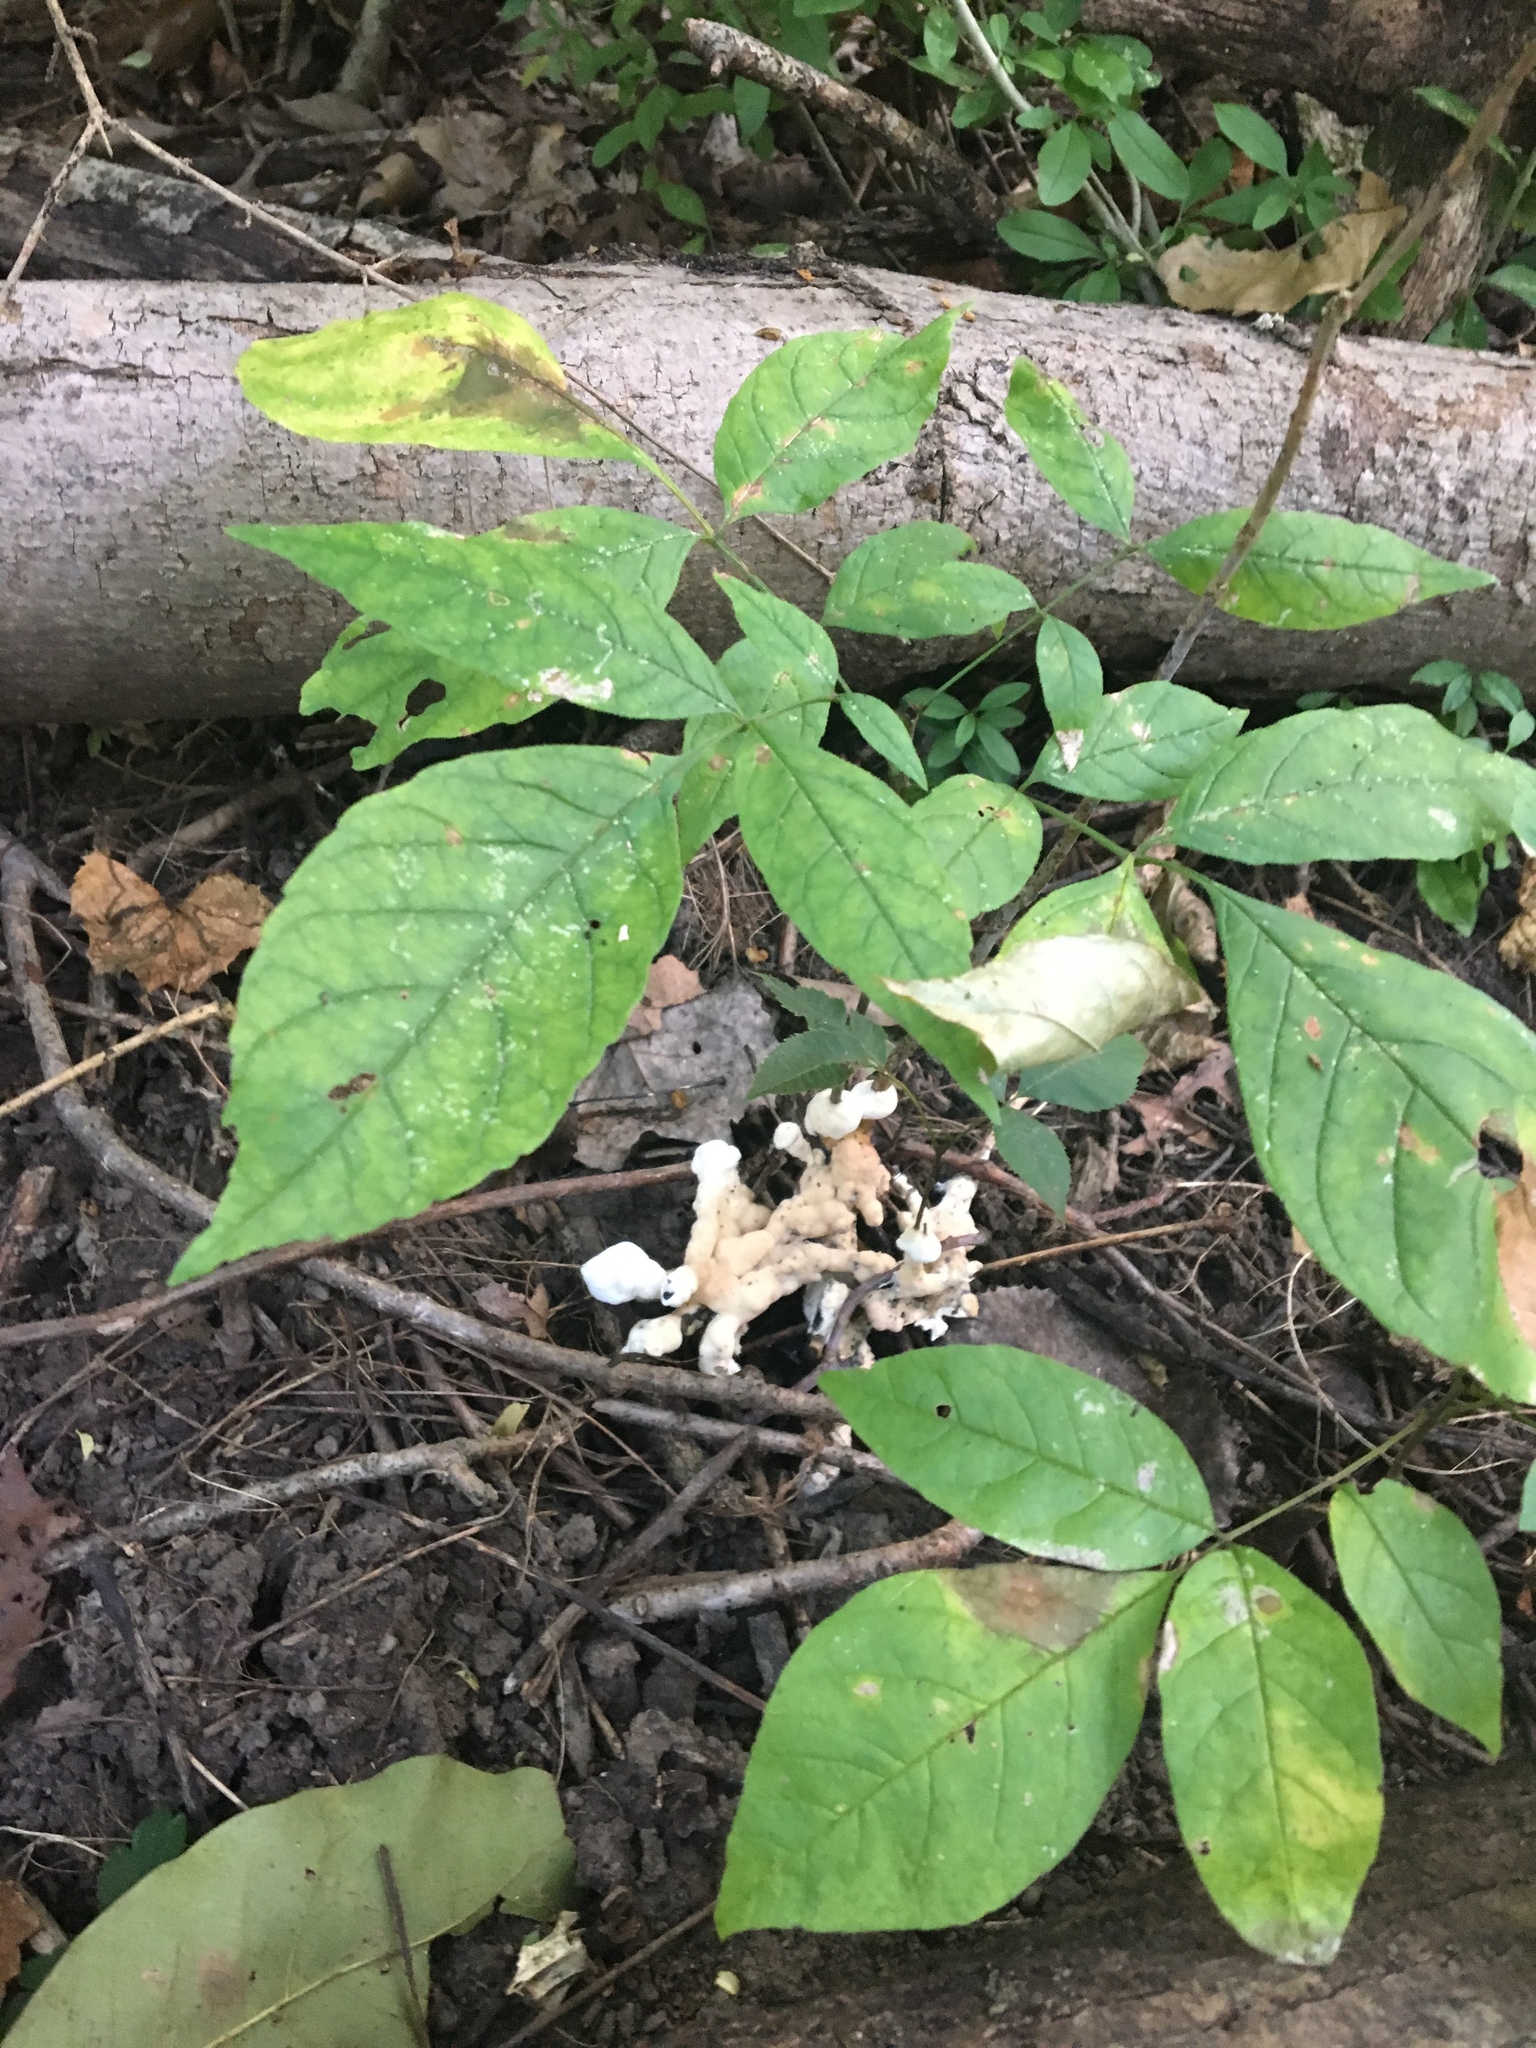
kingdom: Fungi
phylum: Basidiomycota
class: Agaricomycetes
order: Sebacinales
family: Sebacinaceae
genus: Sebacina
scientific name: Sebacina incrustans
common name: Enveloping crust
